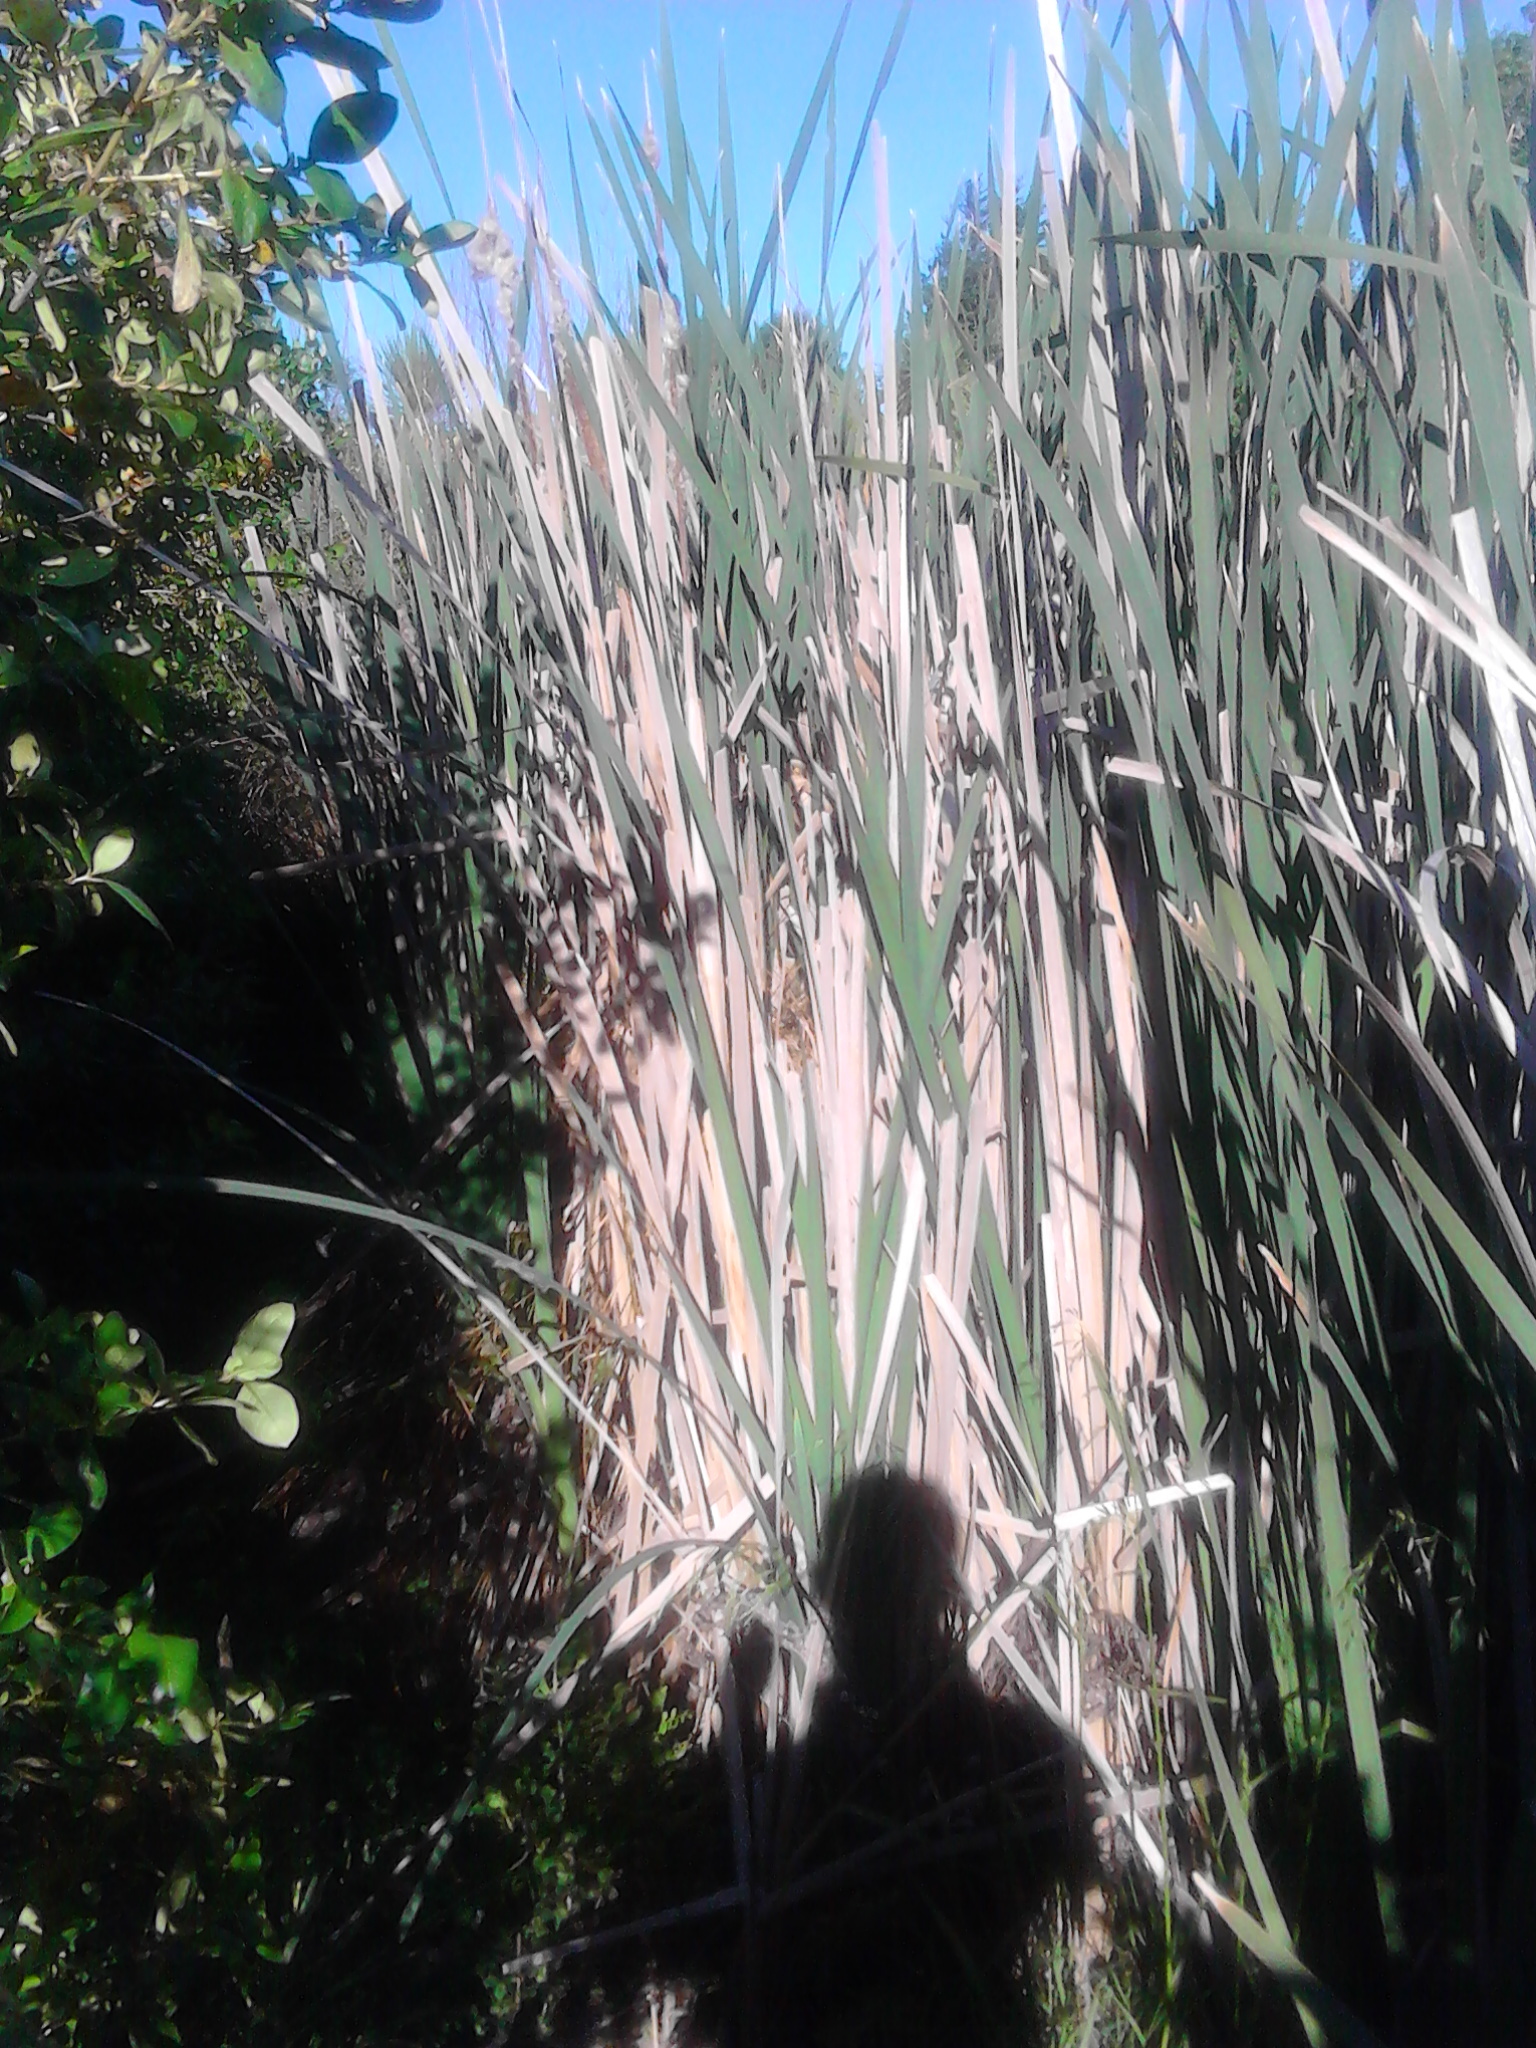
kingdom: Plantae
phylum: Tracheophyta
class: Liliopsida
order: Poales
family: Typhaceae
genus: Typha
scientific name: Typha orientalis
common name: Bullrush
